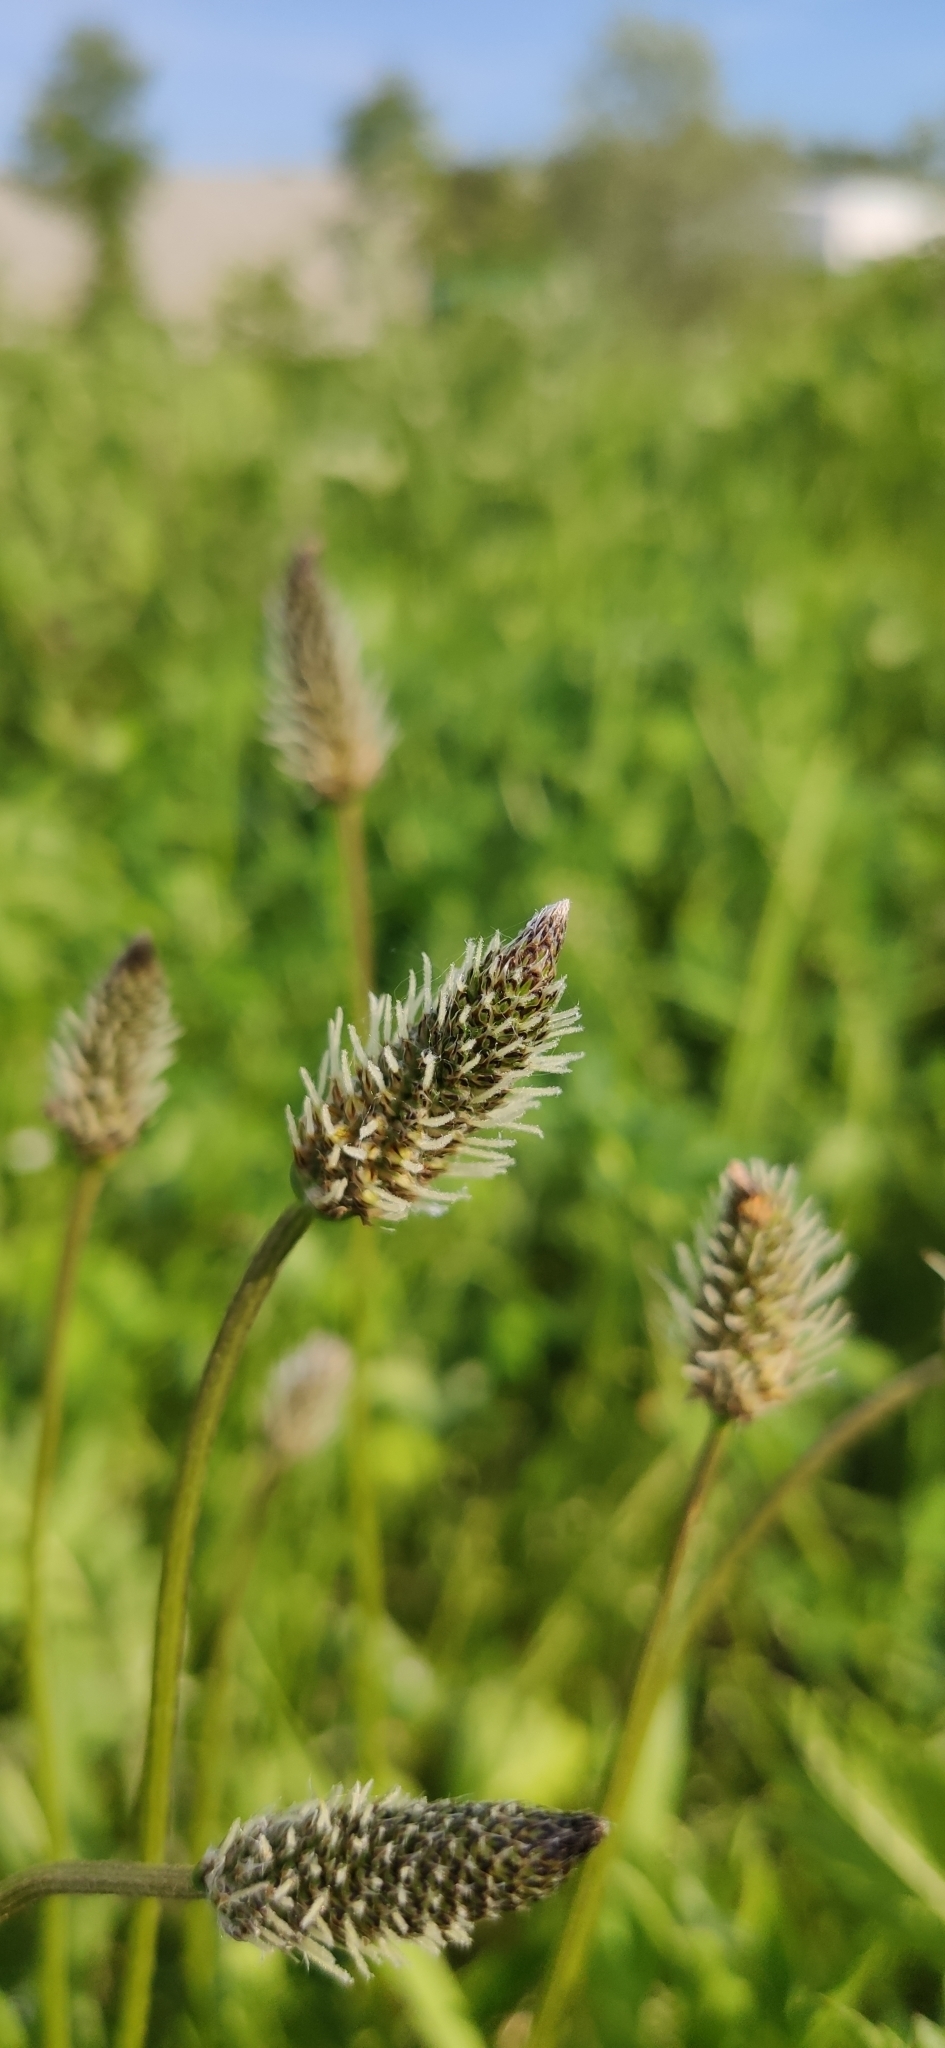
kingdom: Plantae
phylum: Tracheophyta
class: Magnoliopsida
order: Lamiales
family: Plantaginaceae
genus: Plantago
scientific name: Plantago lanceolata
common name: Ribwort plantain
